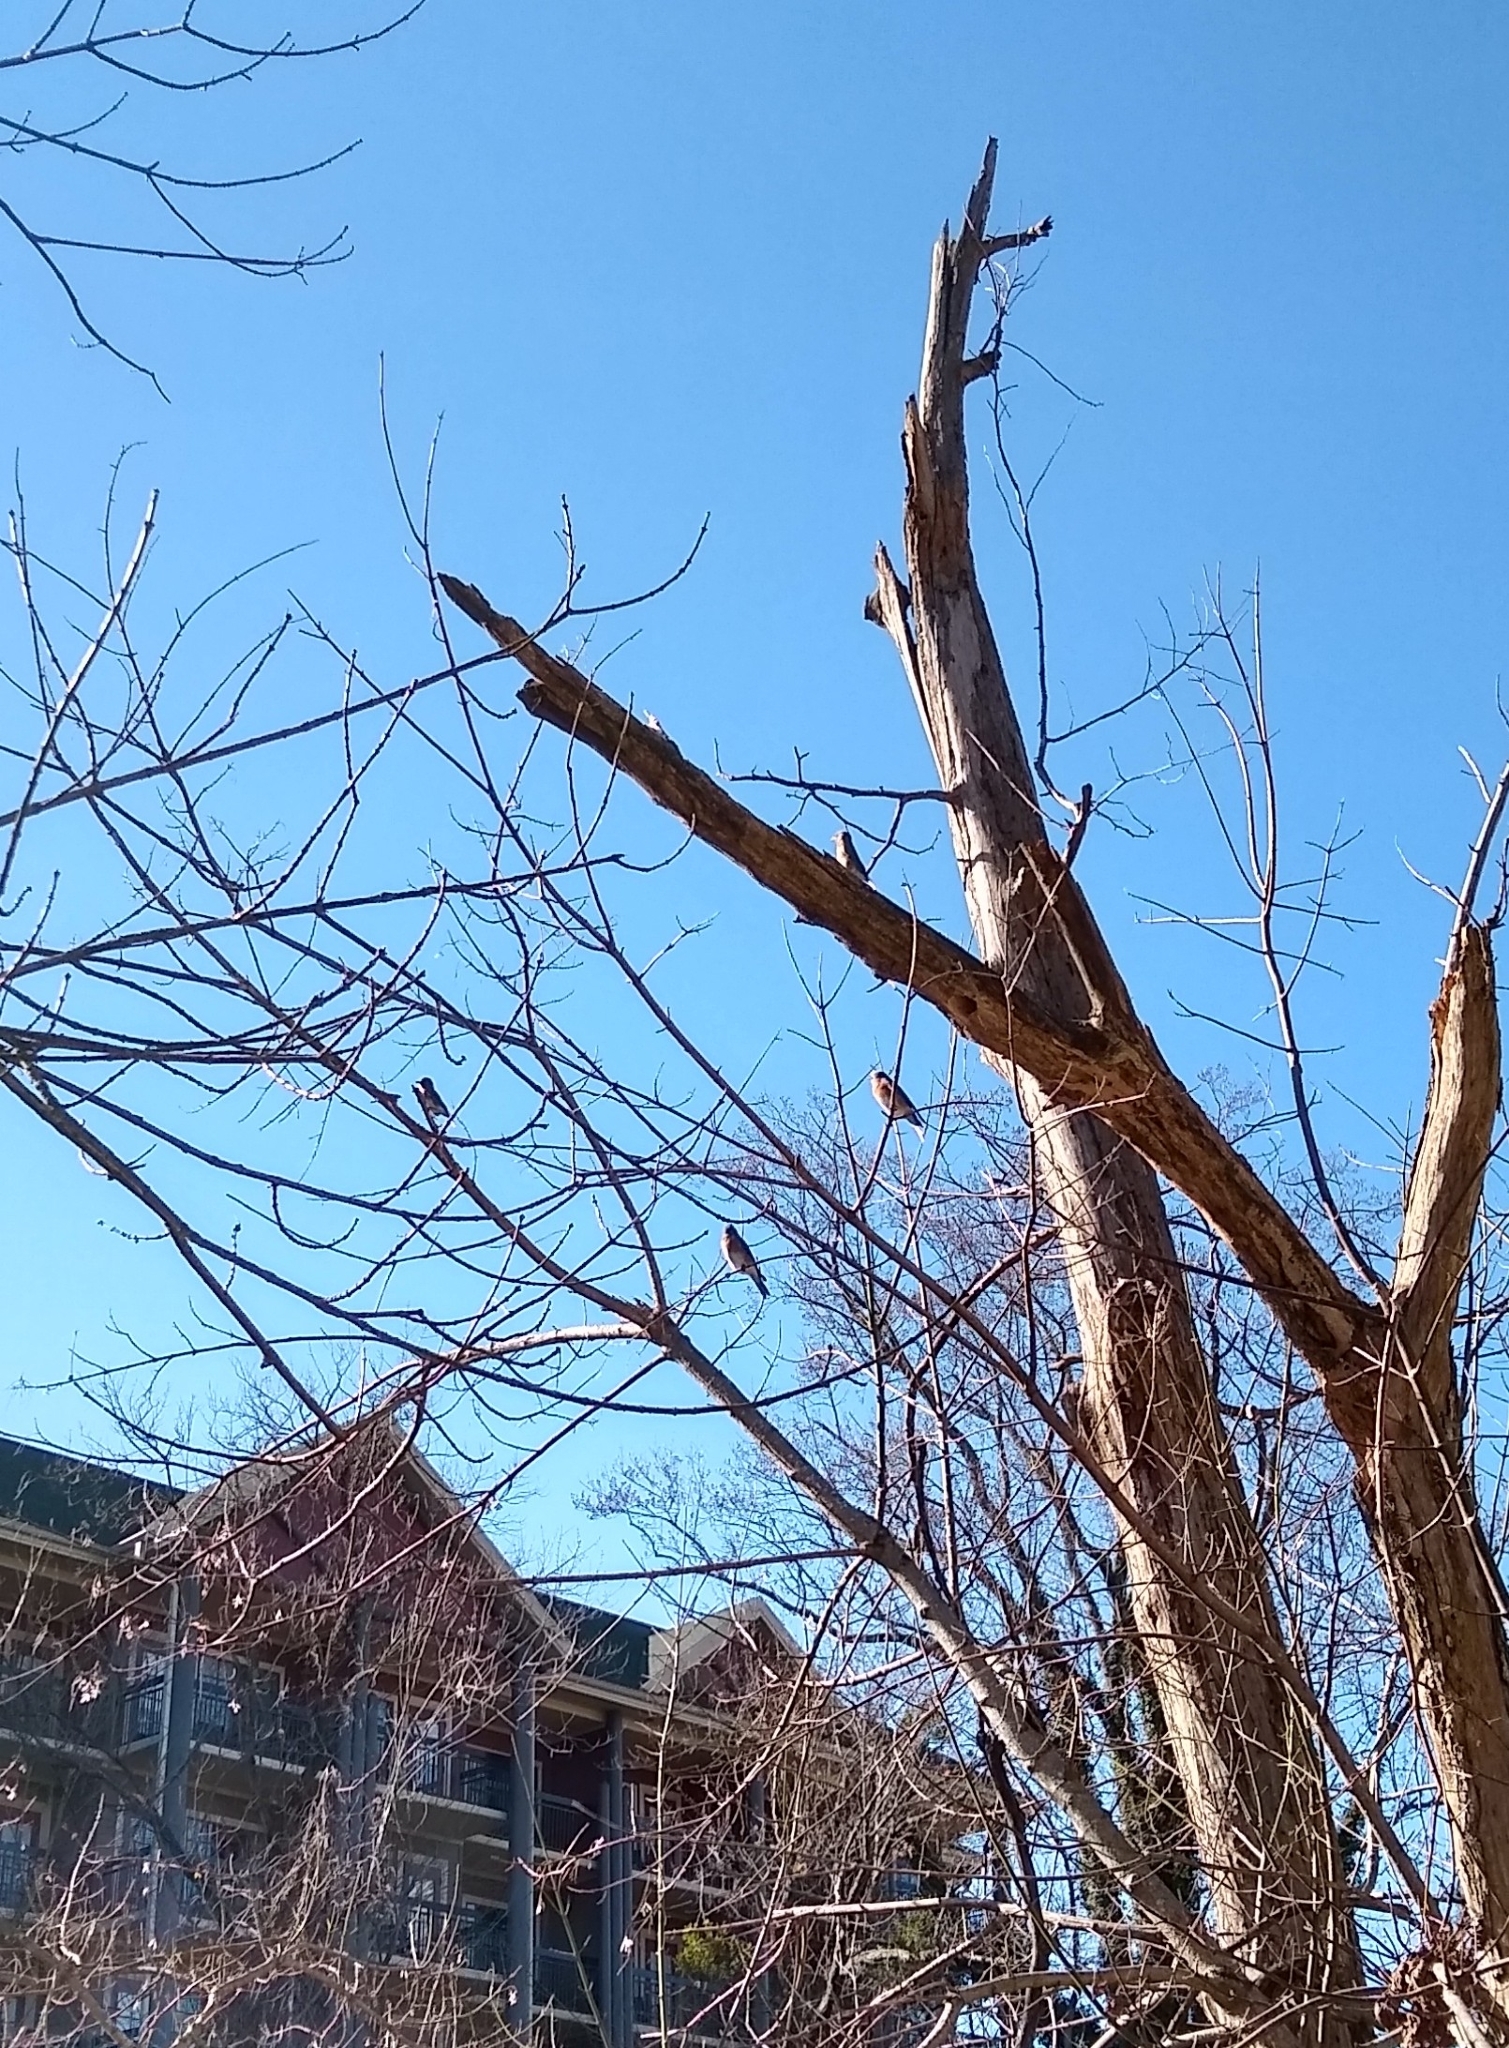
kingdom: Animalia
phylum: Chordata
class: Aves
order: Passeriformes
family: Turdidae
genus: Sialia
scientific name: Sialia sialis
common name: Eastern bluebird
